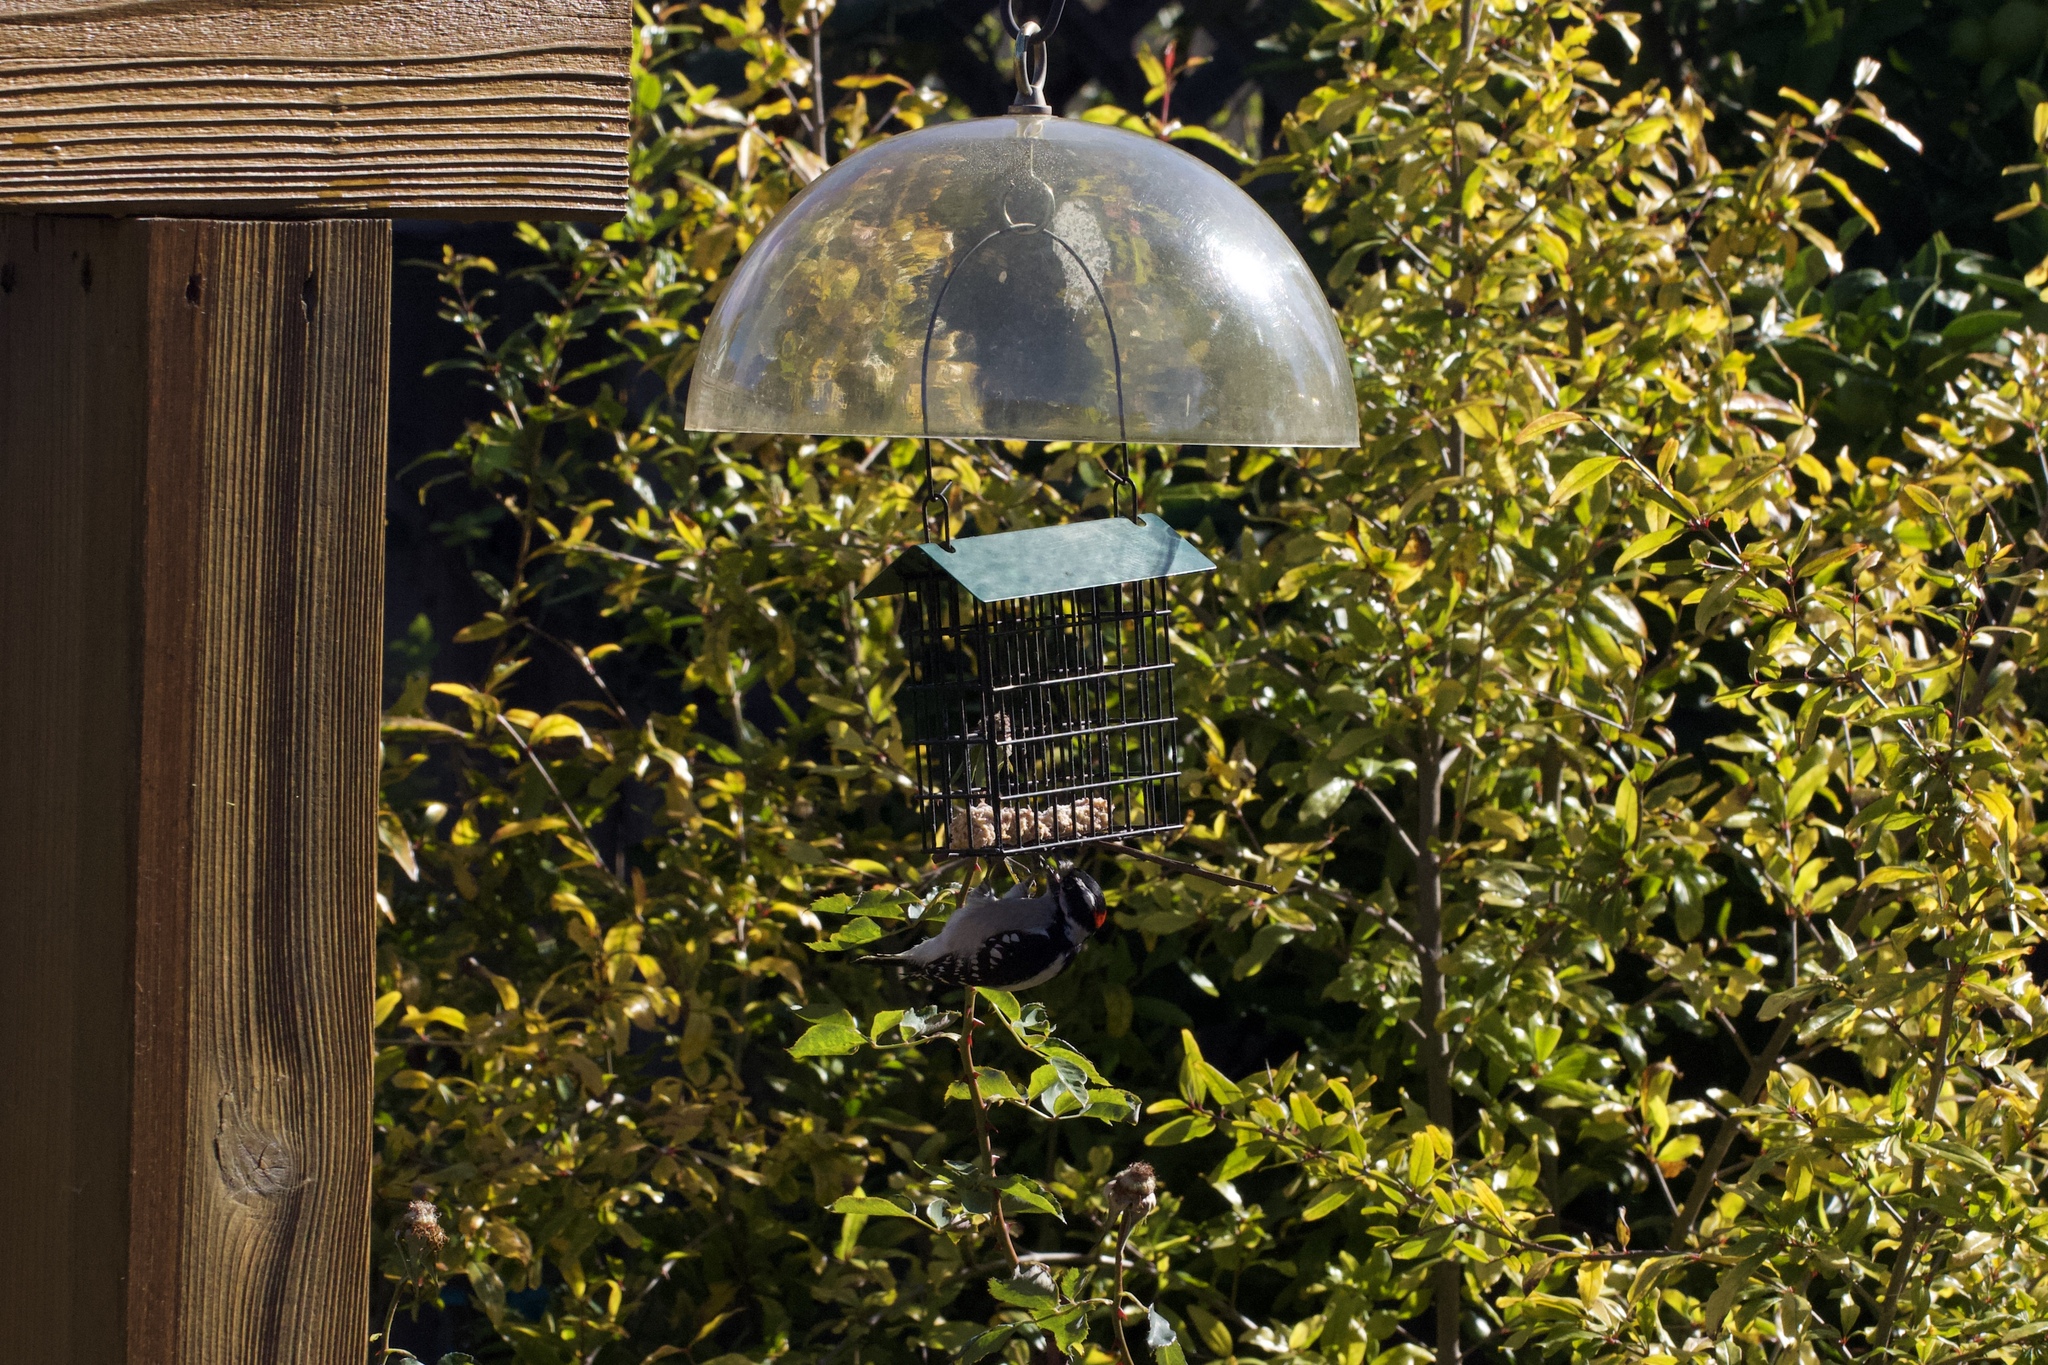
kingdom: Animalia
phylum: Chordata
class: Aves
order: Piciformes
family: Picidae
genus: Dryobates
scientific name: Dryobates pubescens
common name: Downy woodpecker
